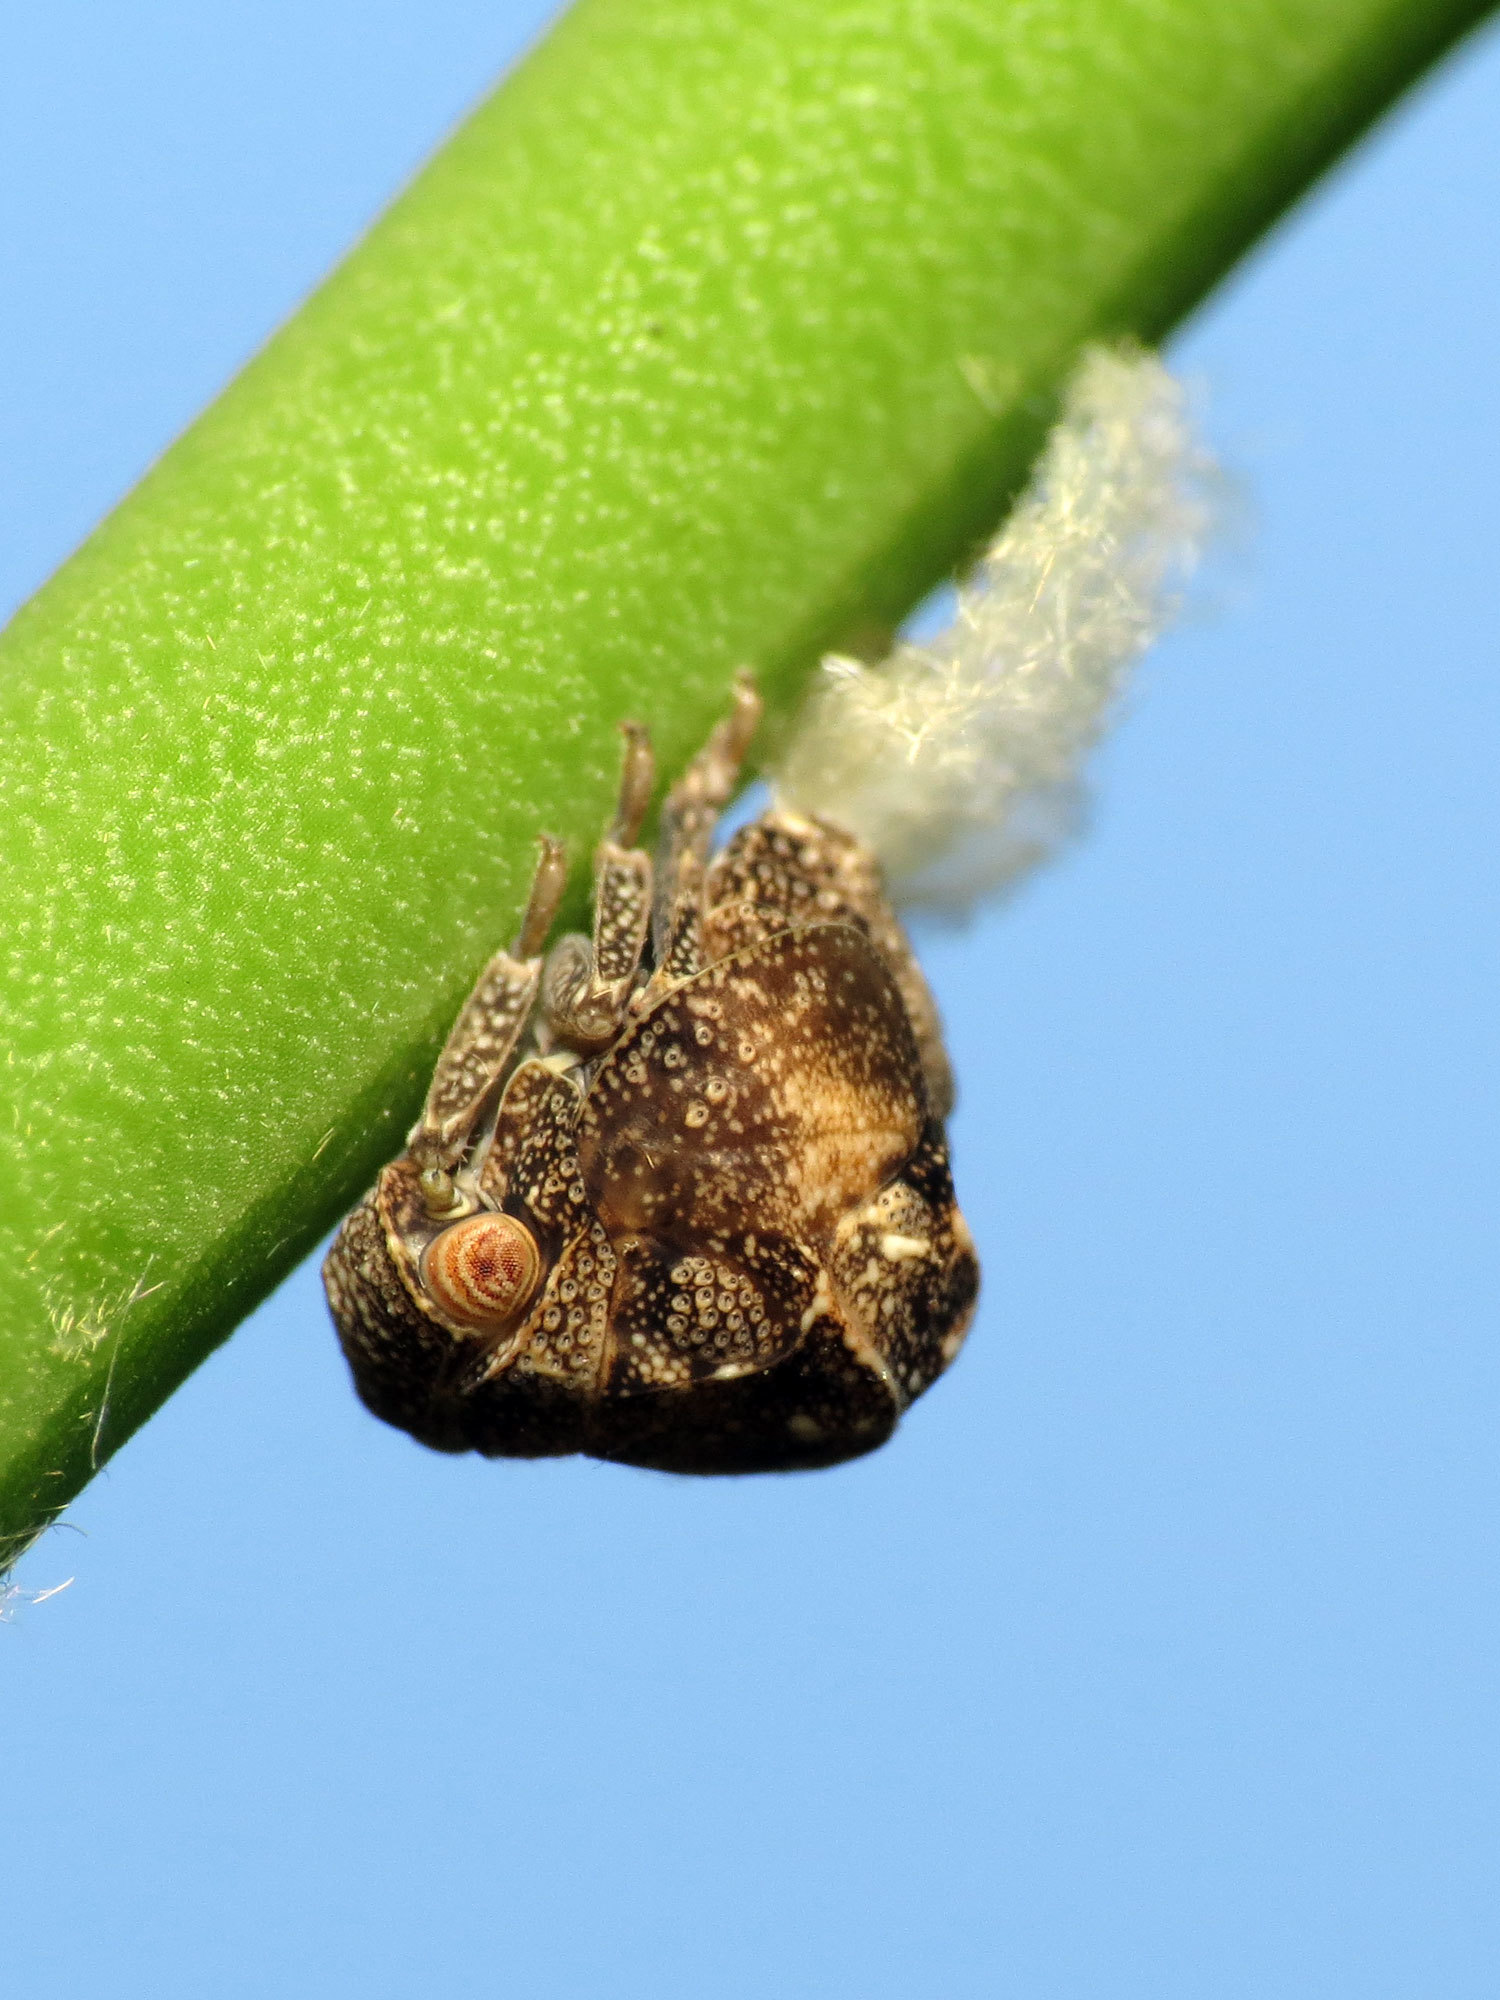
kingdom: Animalia
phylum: Arthropoda
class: Insecta
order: Hemiptera
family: Acanaloniidae
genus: Acanalonia
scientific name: Acanalonia bivittata
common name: Two-striped planthopper
